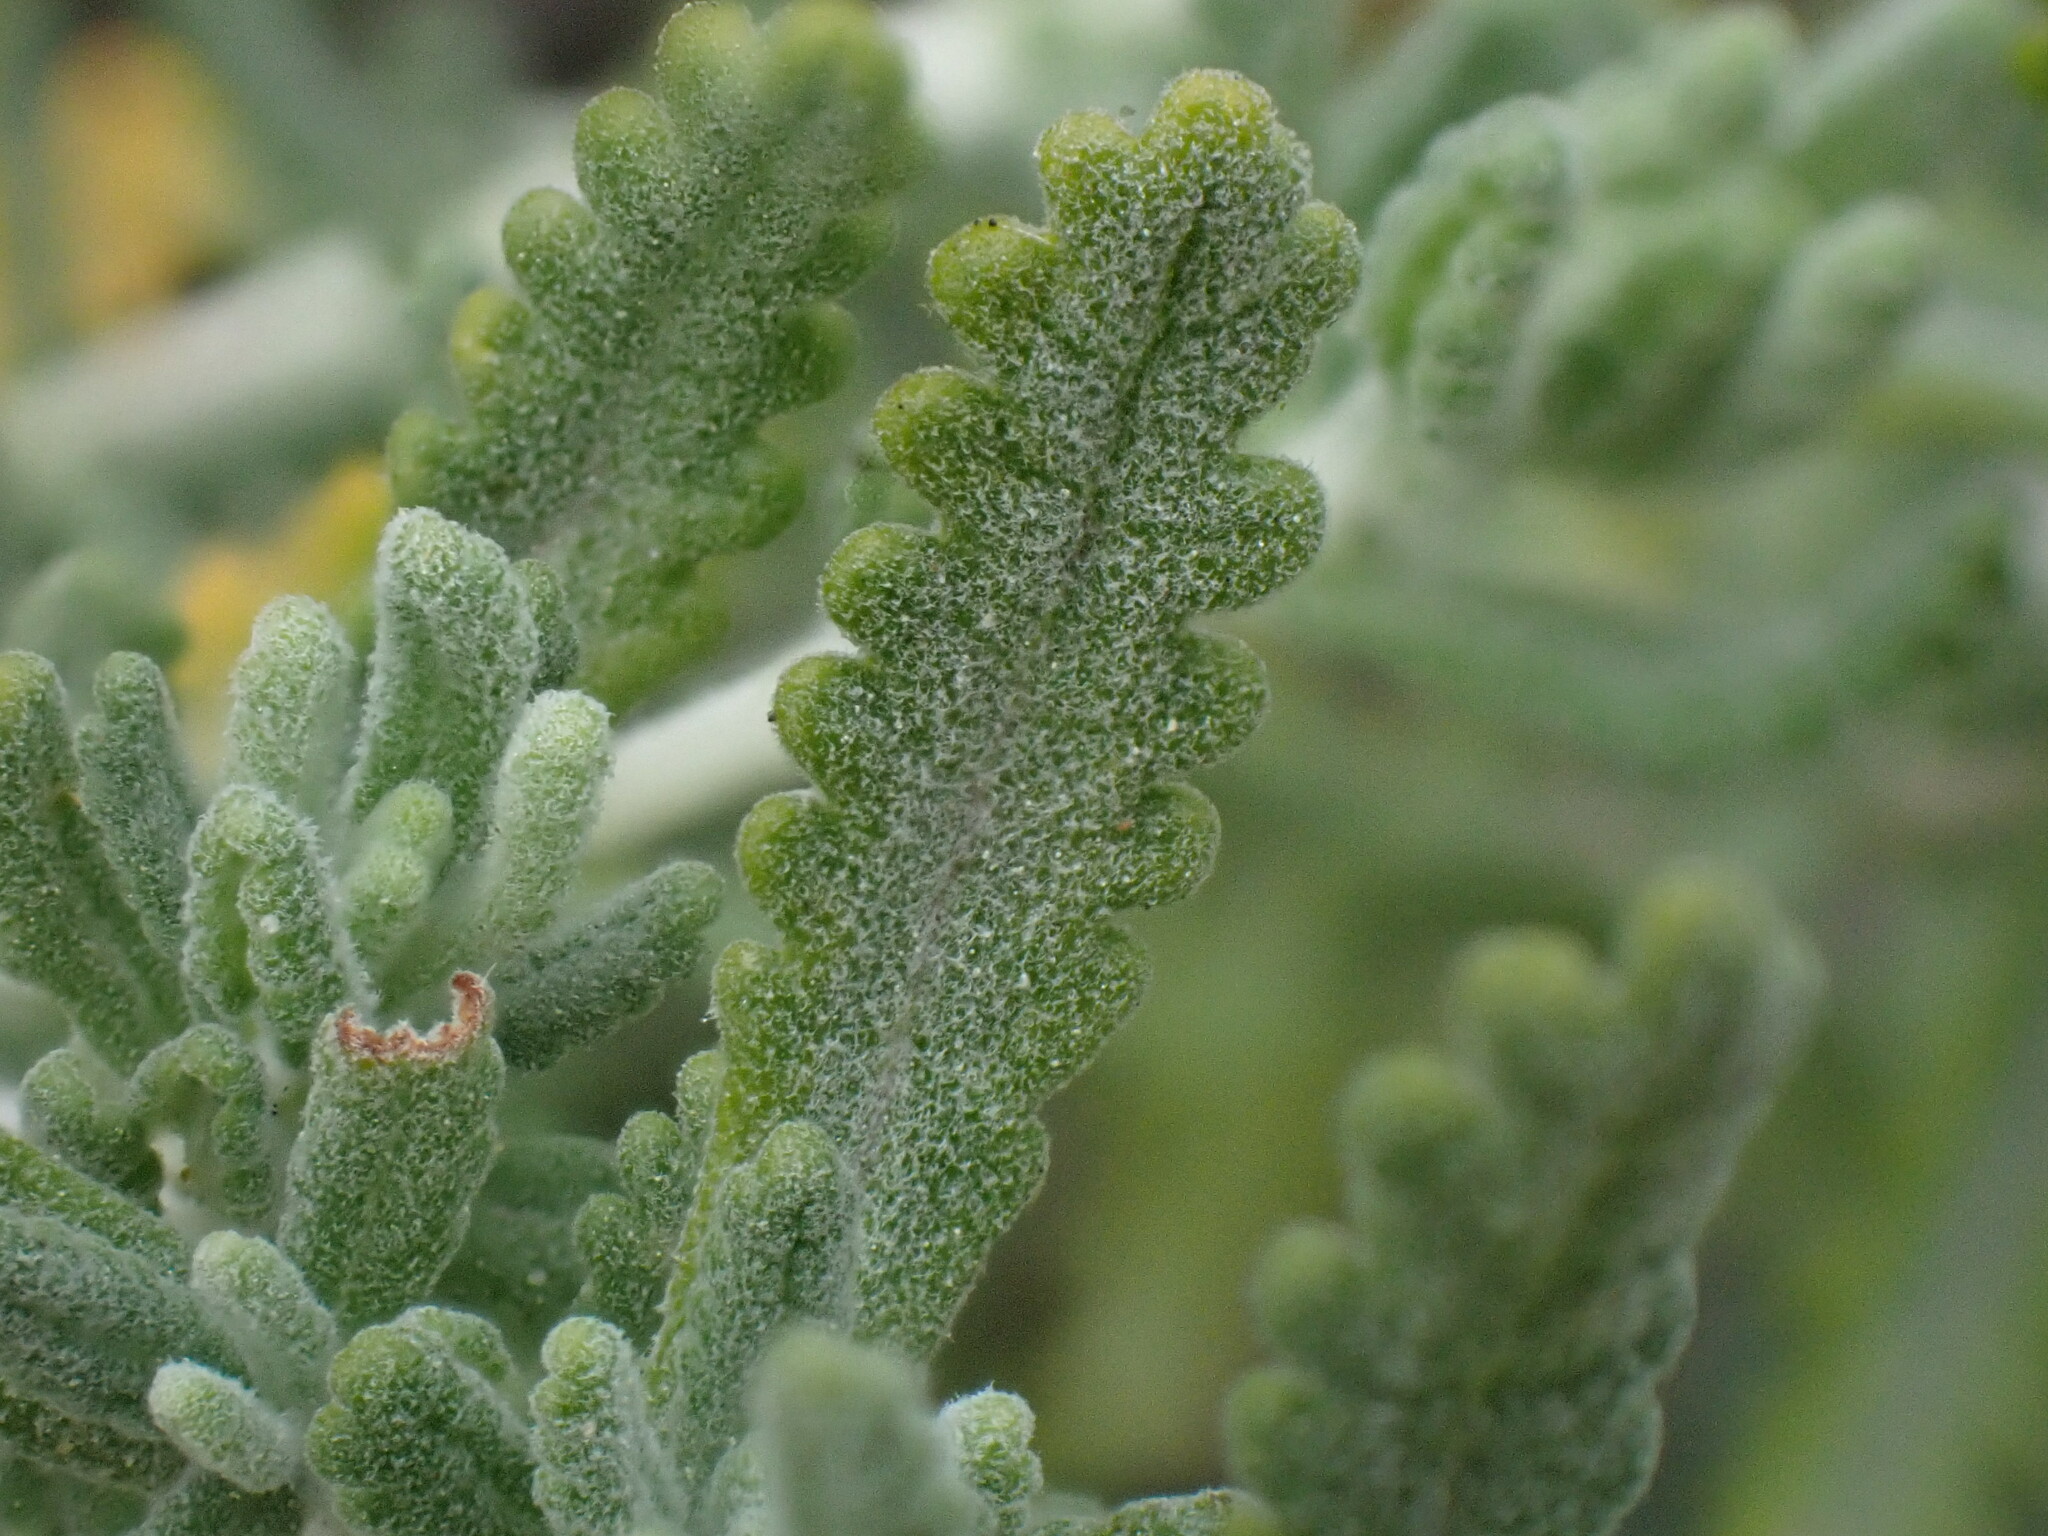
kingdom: Plantae
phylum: Tracheophyta
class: Magnoliopsida
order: Lamiales
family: Lamiaceae
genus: Teucrium
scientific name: Teucrium dunense
